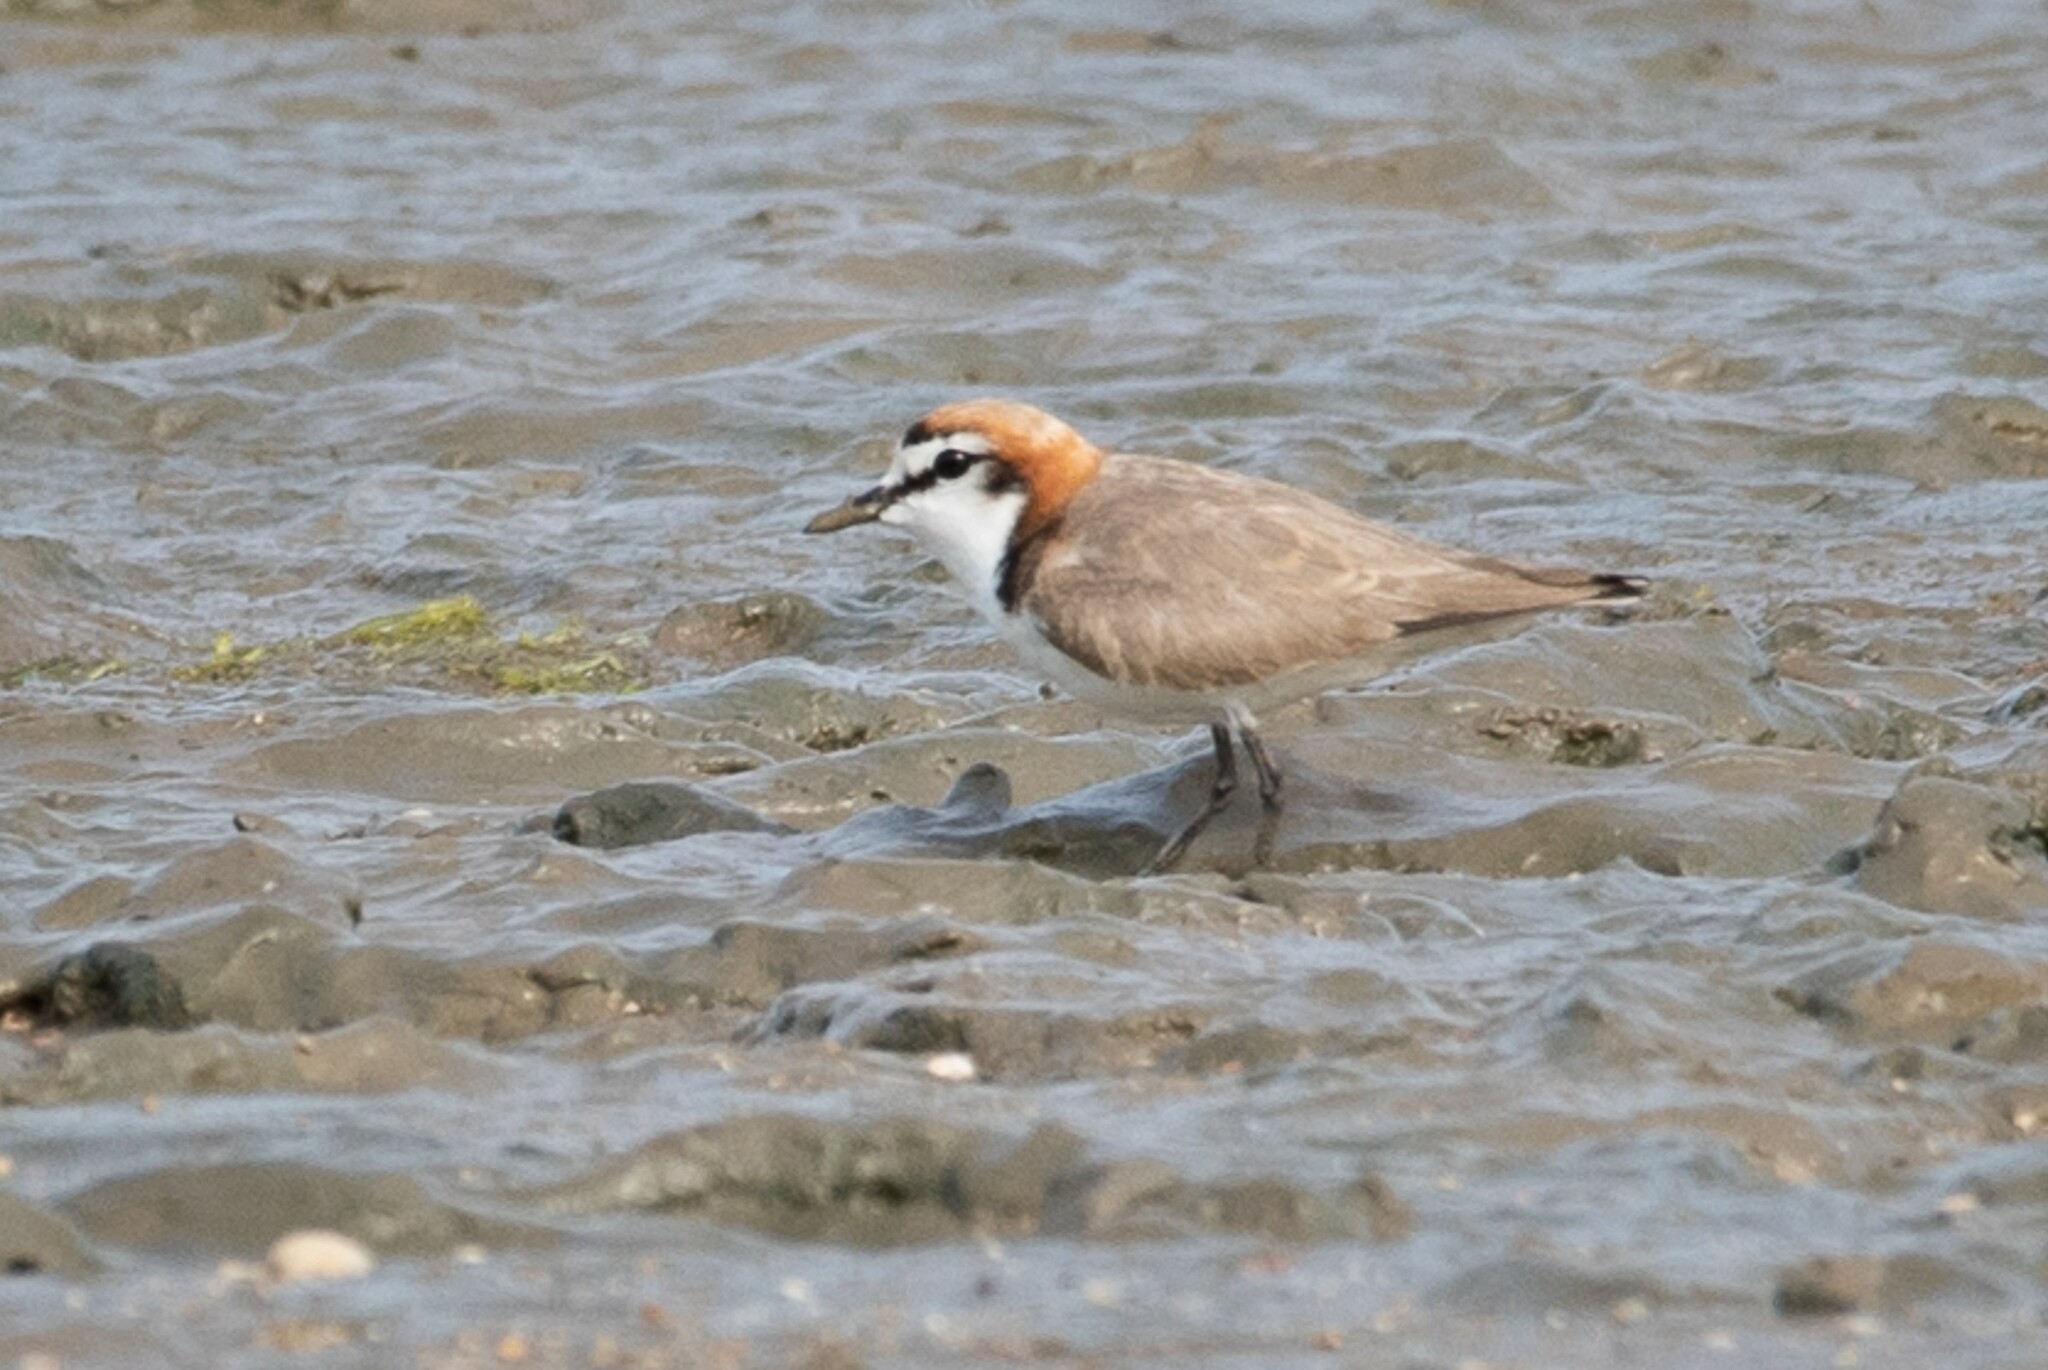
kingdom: Animalia
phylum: Chordata
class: Aves
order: Charadriiformes
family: Charadriidae
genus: Anarhynchus
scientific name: Anarhynchus
